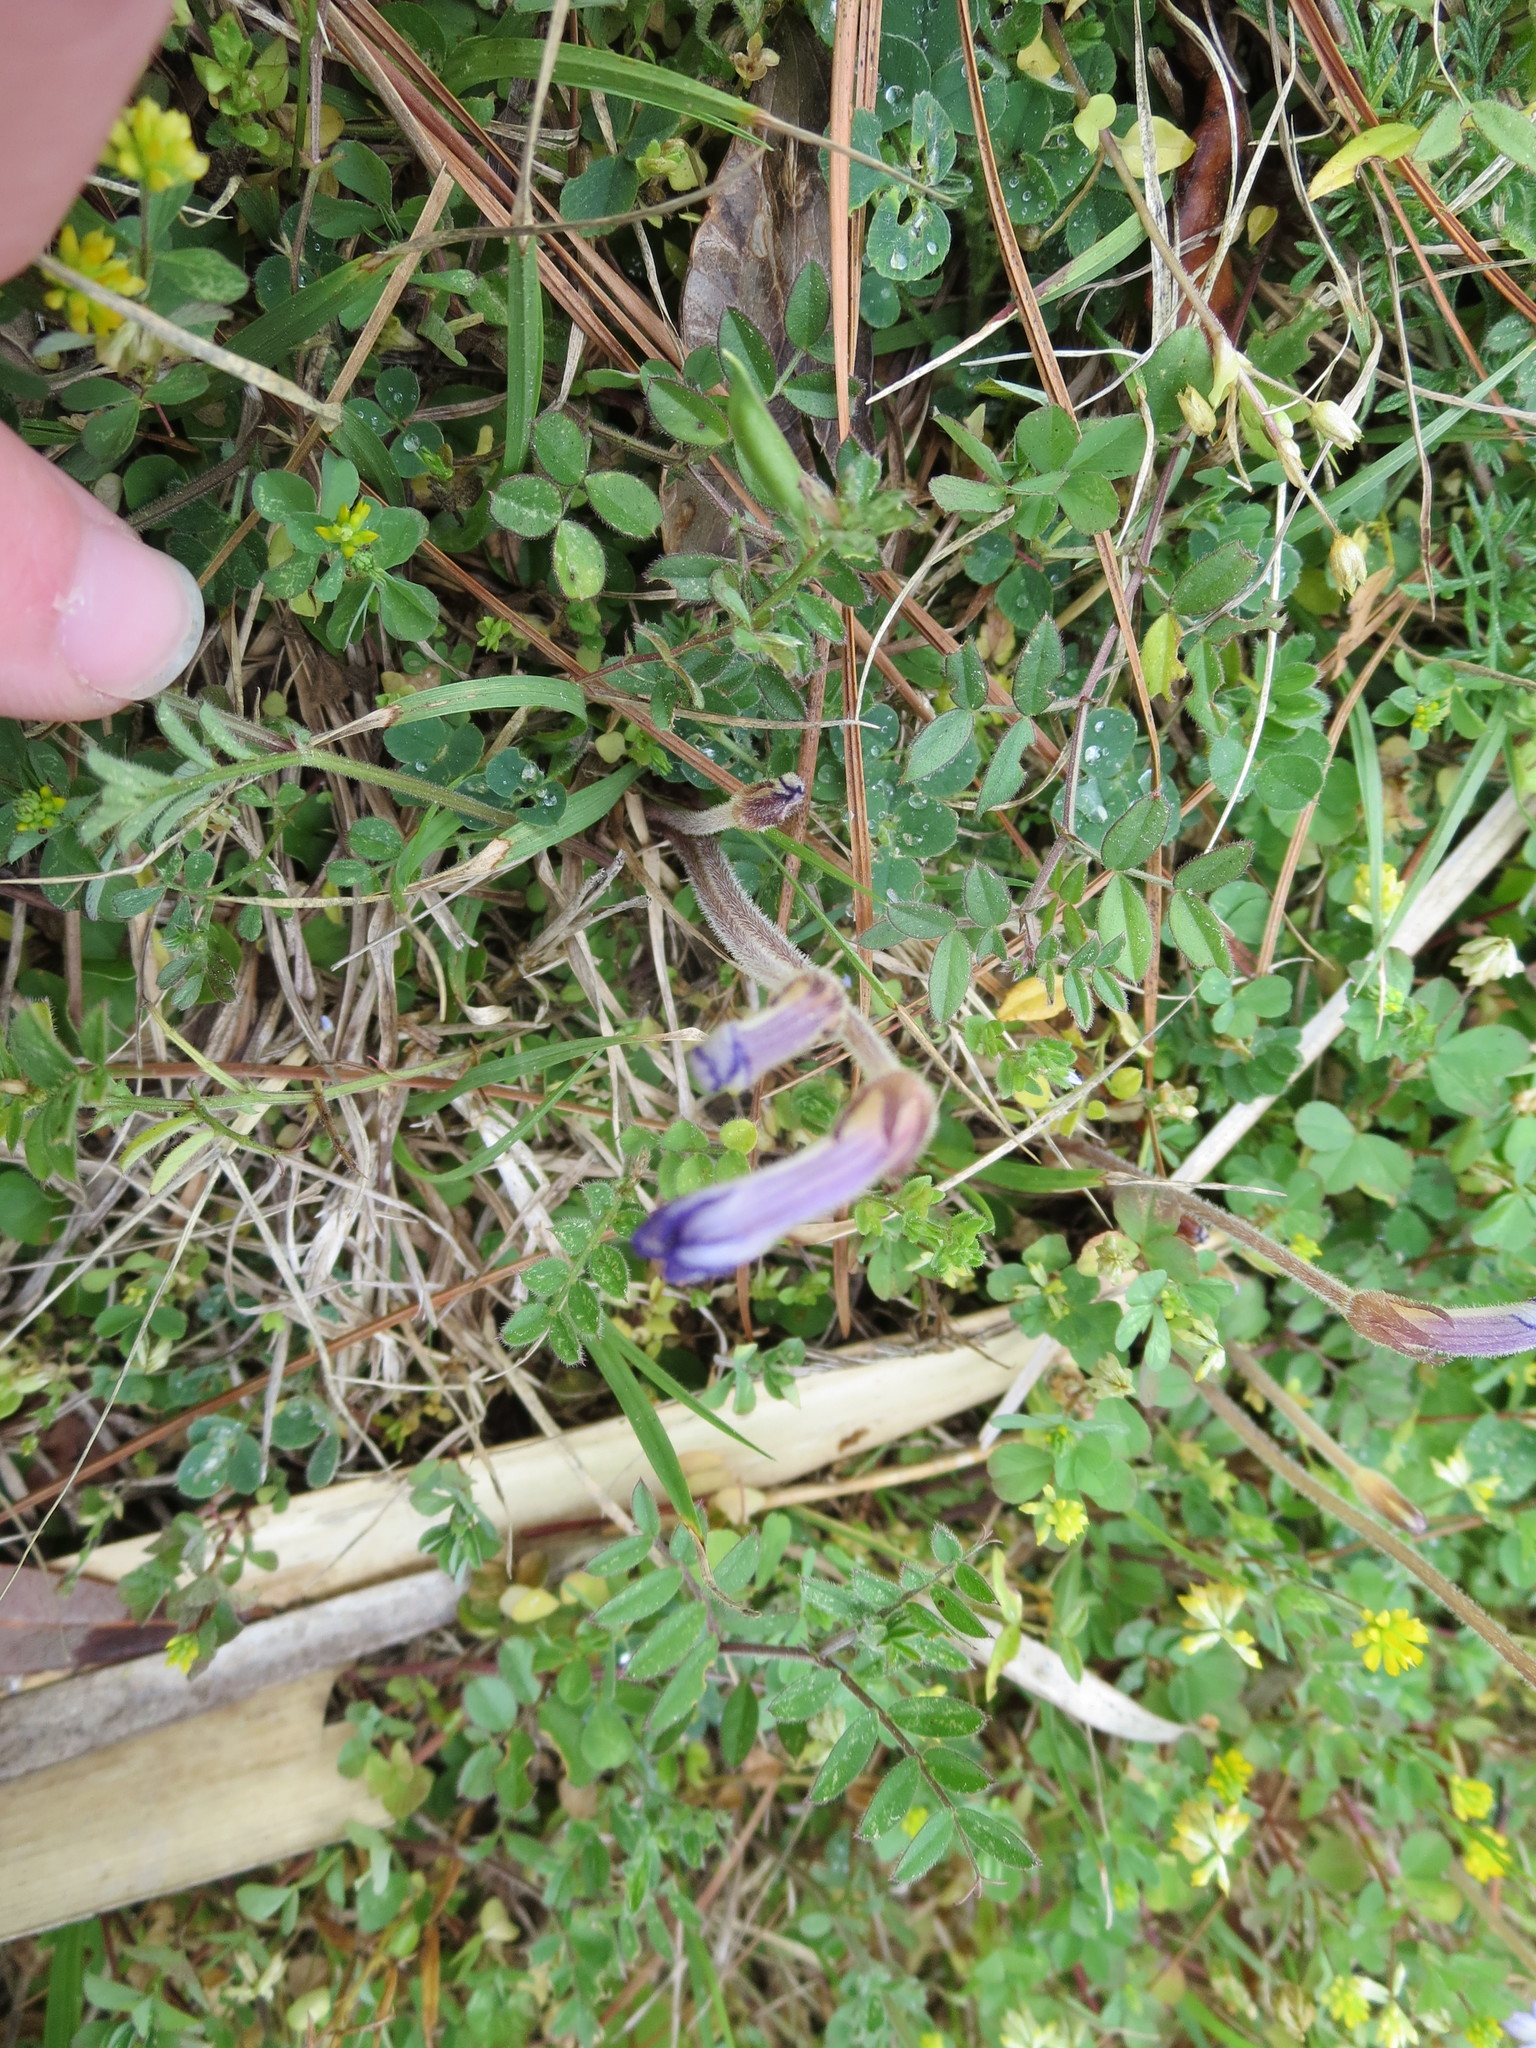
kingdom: Plantae
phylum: Tracheophyta
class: Magnoliopsida
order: Lamiales
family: Orobanchaceae
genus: Aphyllon
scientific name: Aphyllon uniflorum
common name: One-flowered broomrape
